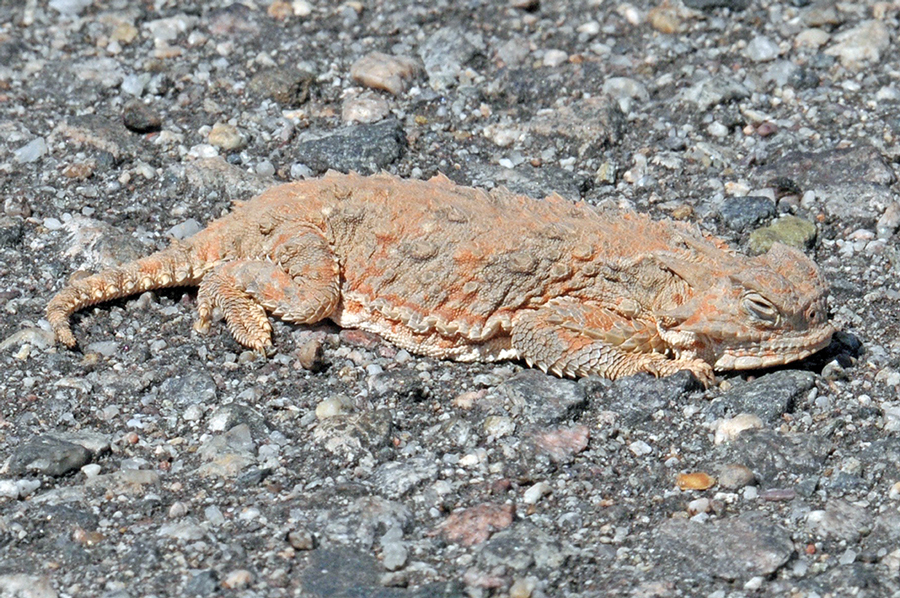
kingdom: Animalia
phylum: Chordata
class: Squamata
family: Phrynosomatidae
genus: Phrynosoma
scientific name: Phrynosoma goodei
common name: Sonoran horned lizard
